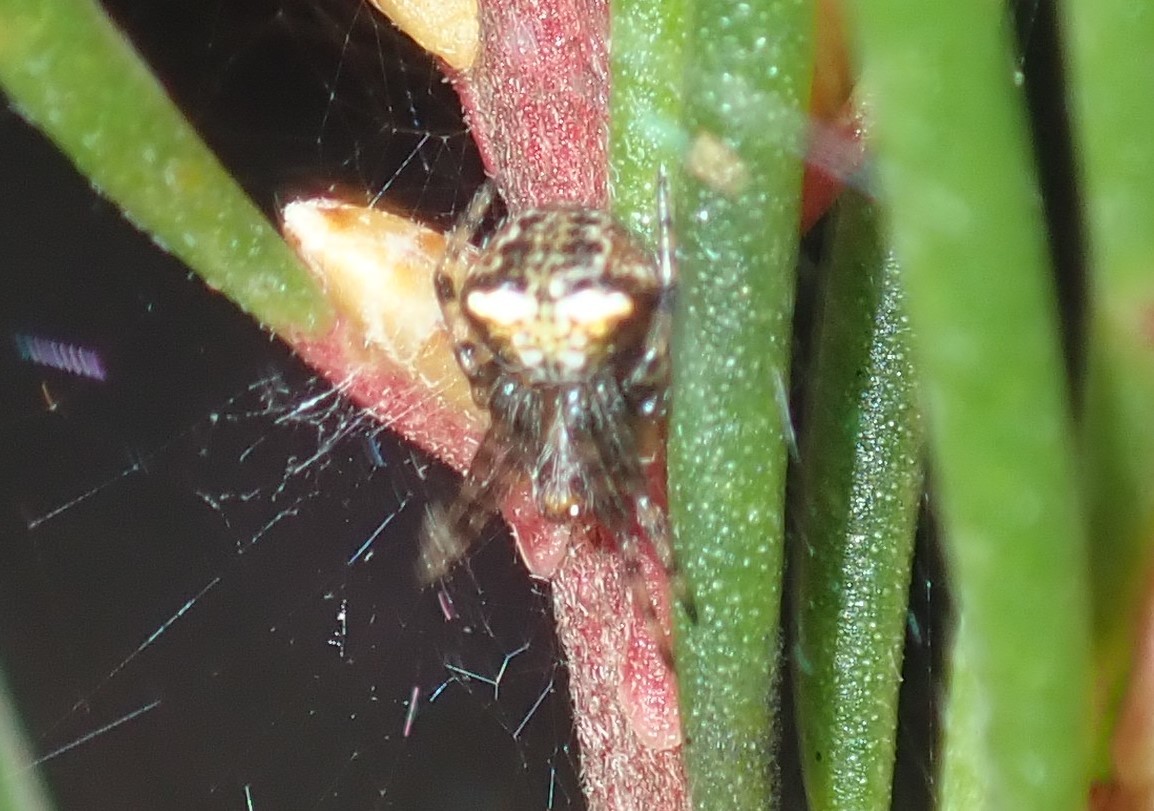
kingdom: Animalia
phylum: Arthropoda
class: Arachnida
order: Araneae
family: Araneidae
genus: Araneus
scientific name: Araneus albotriangulus
